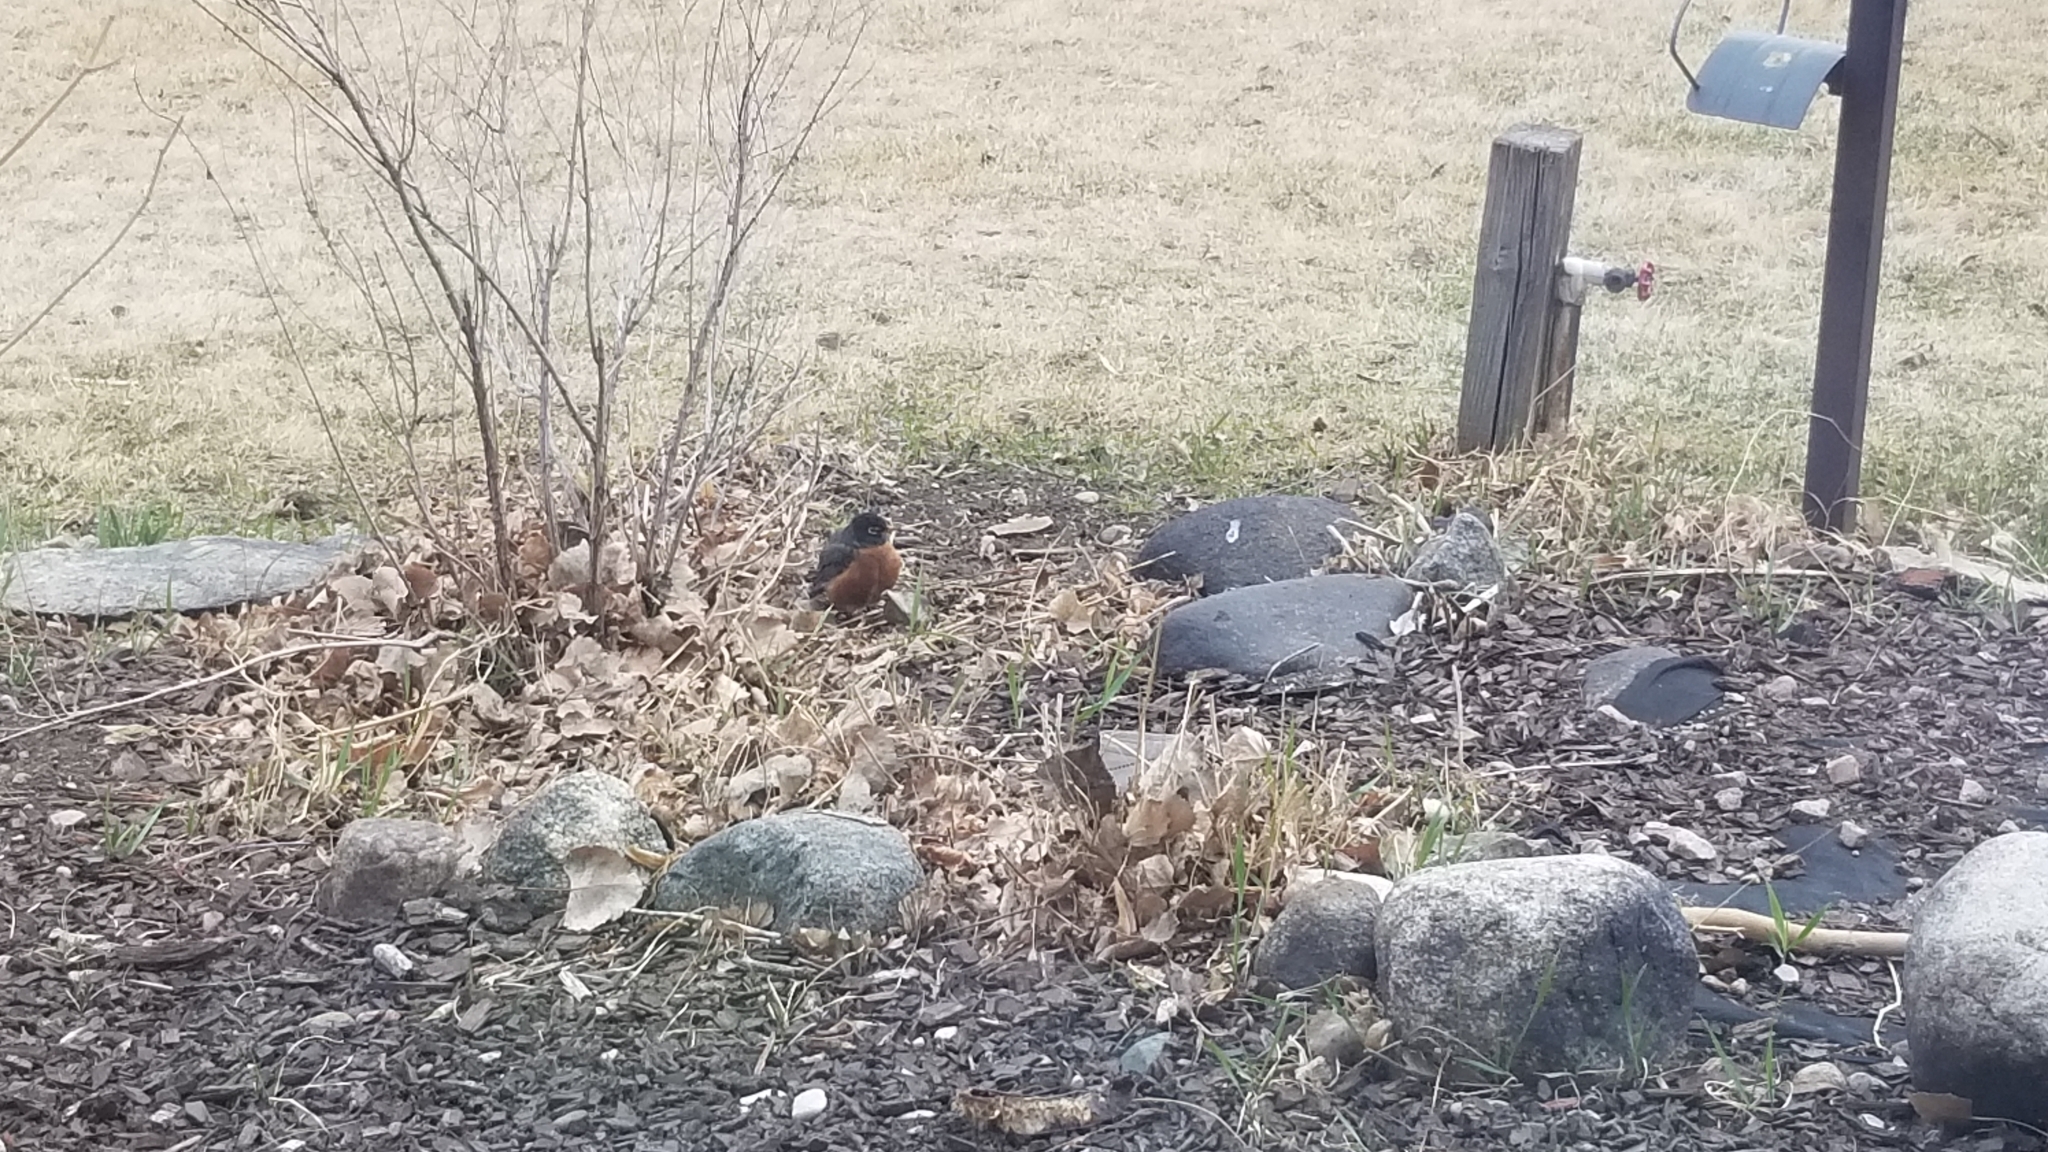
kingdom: Animalia
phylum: Chordata
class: Aves
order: Passeriformes
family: Turdidae
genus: Turdus
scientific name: Turdus migratorius
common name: American robin
